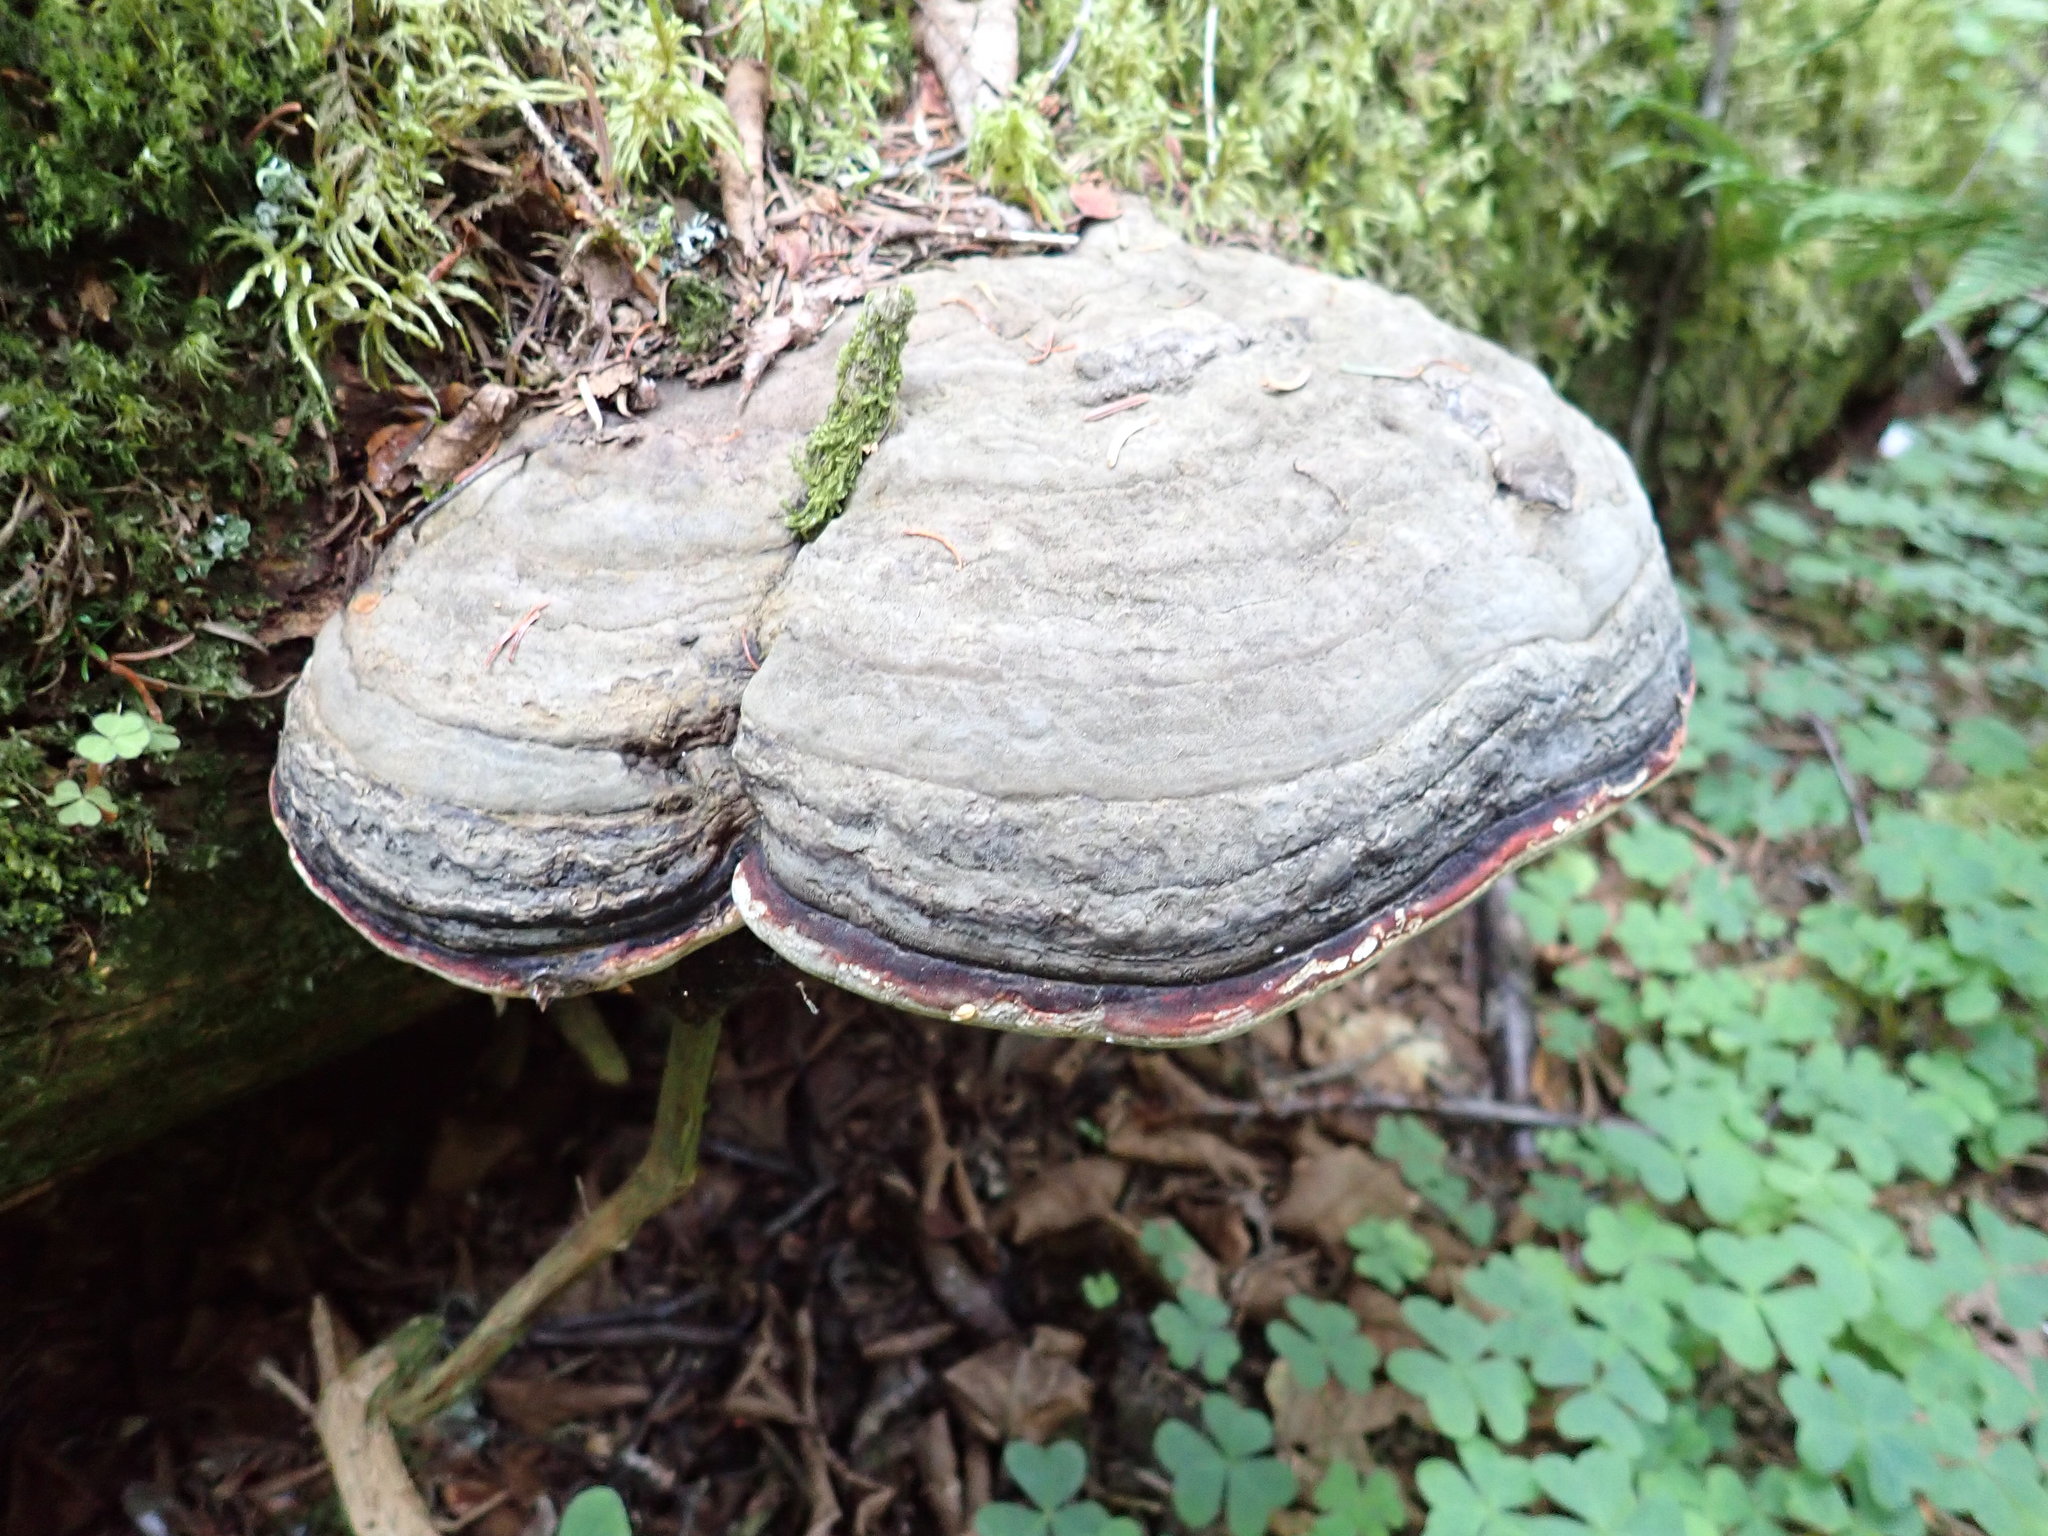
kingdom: Fungi
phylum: Basidiomycota
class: Agaricomycetes
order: Polyporales
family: Fomitopsidaceae
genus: Fomitopsis
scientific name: Fomitopsis mounceae
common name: Northern red belt
